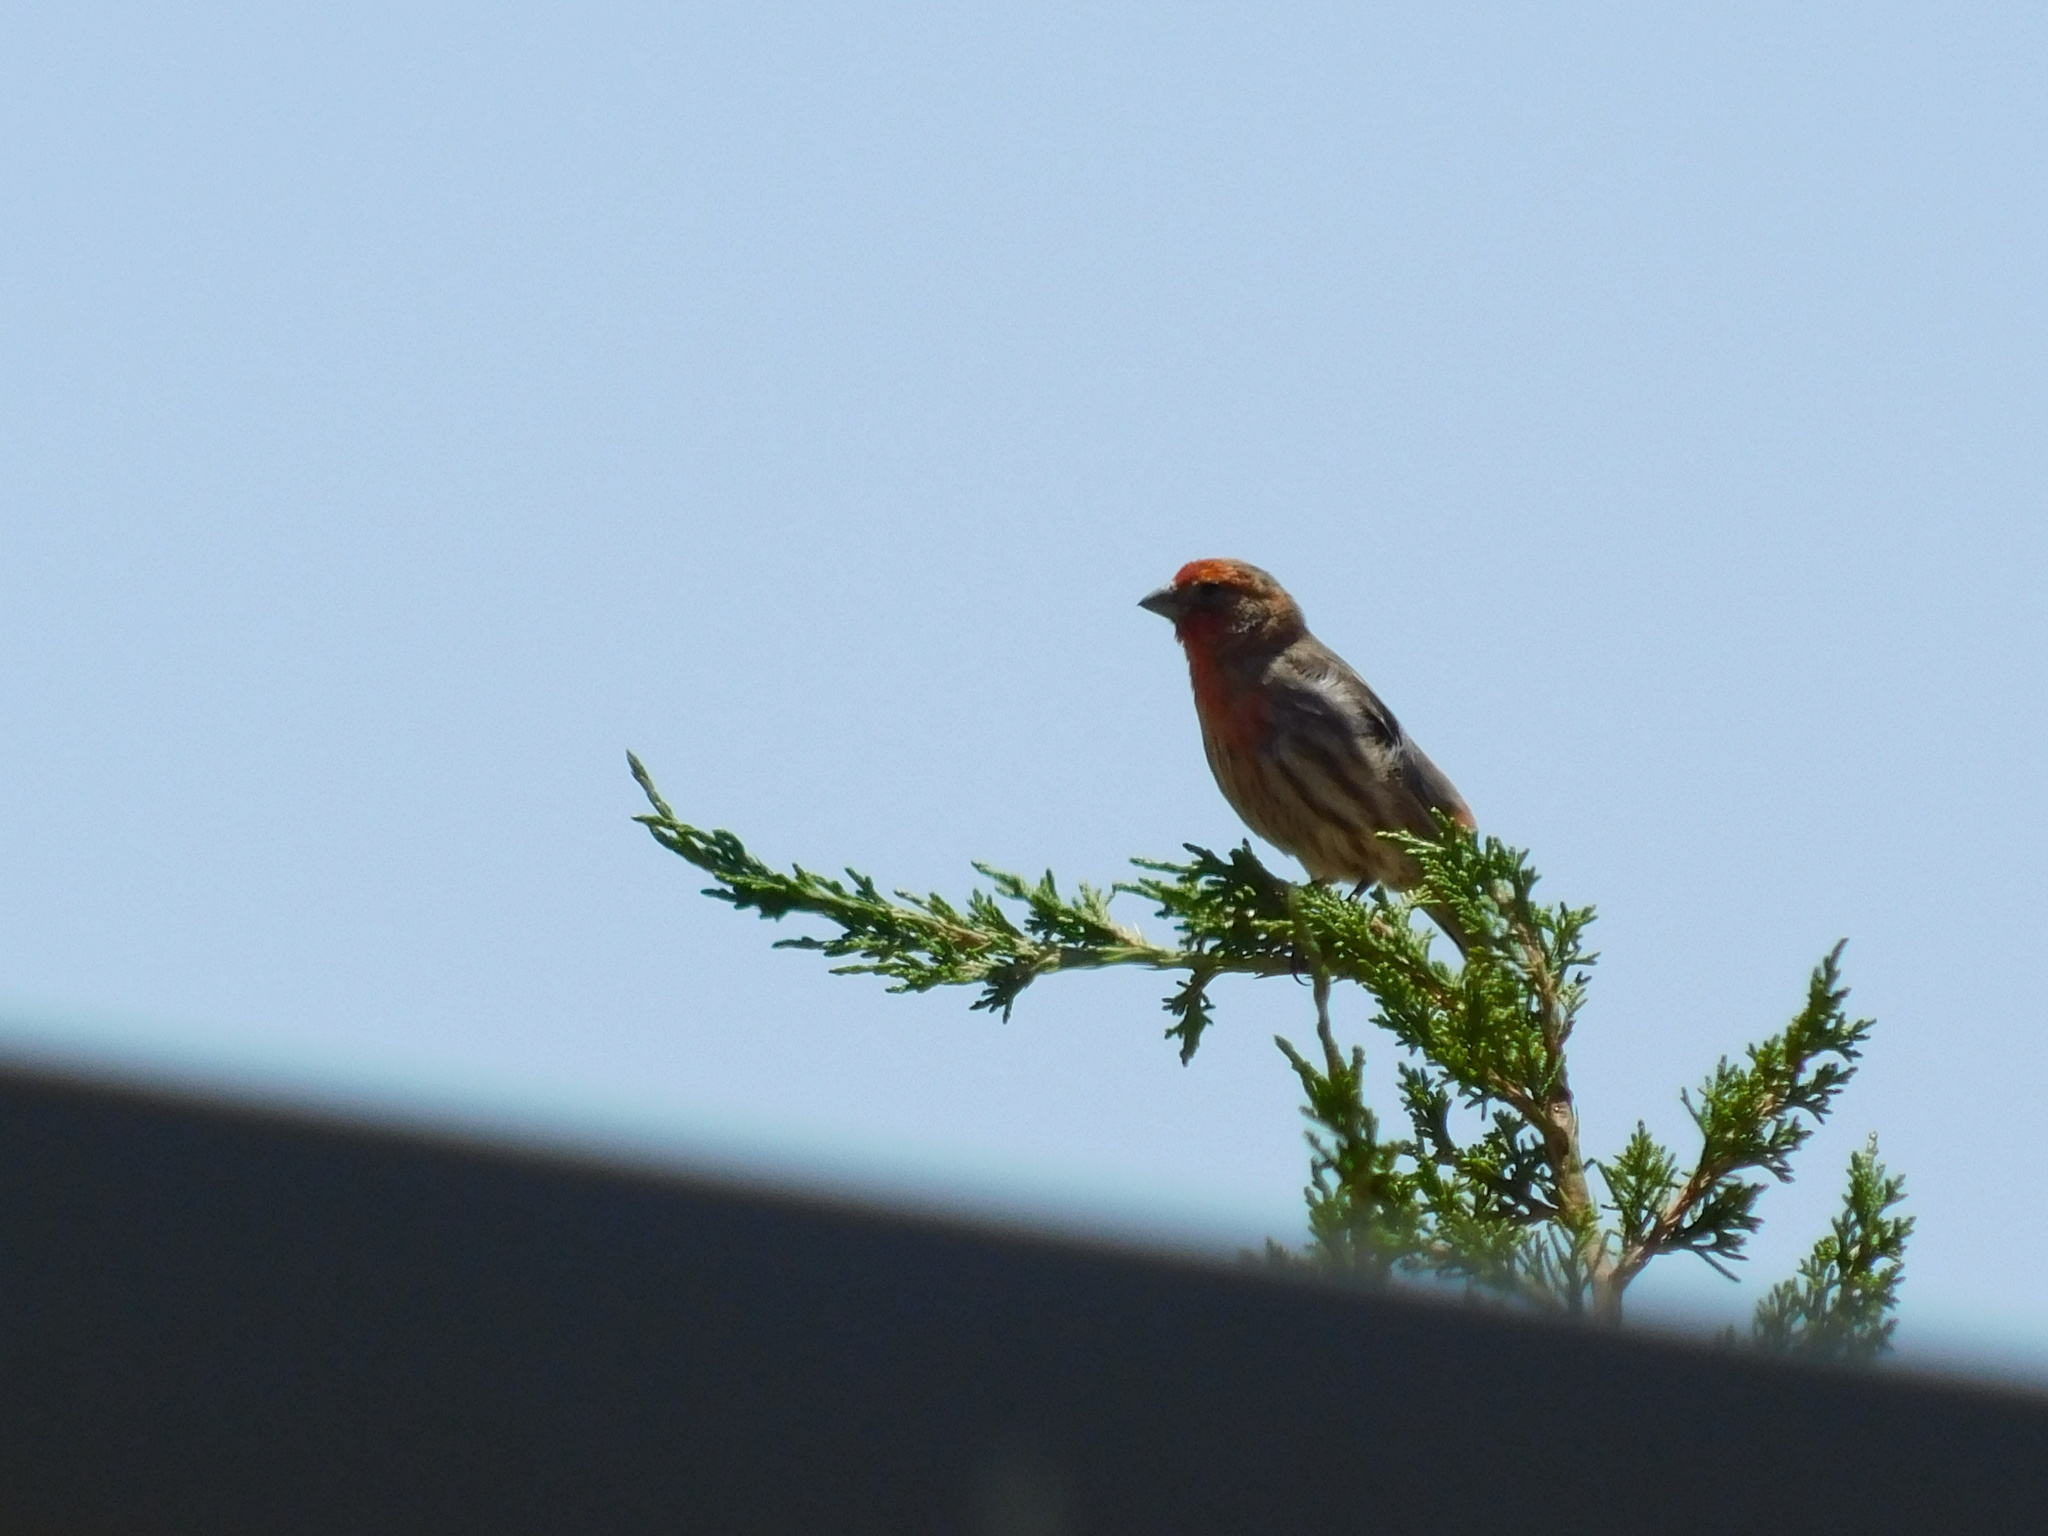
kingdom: Animalia
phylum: Chordata
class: Aves
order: Passeriformes
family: Fringillidae
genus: Haemorhous
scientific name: Haemorhous mexicanus
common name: House finch
